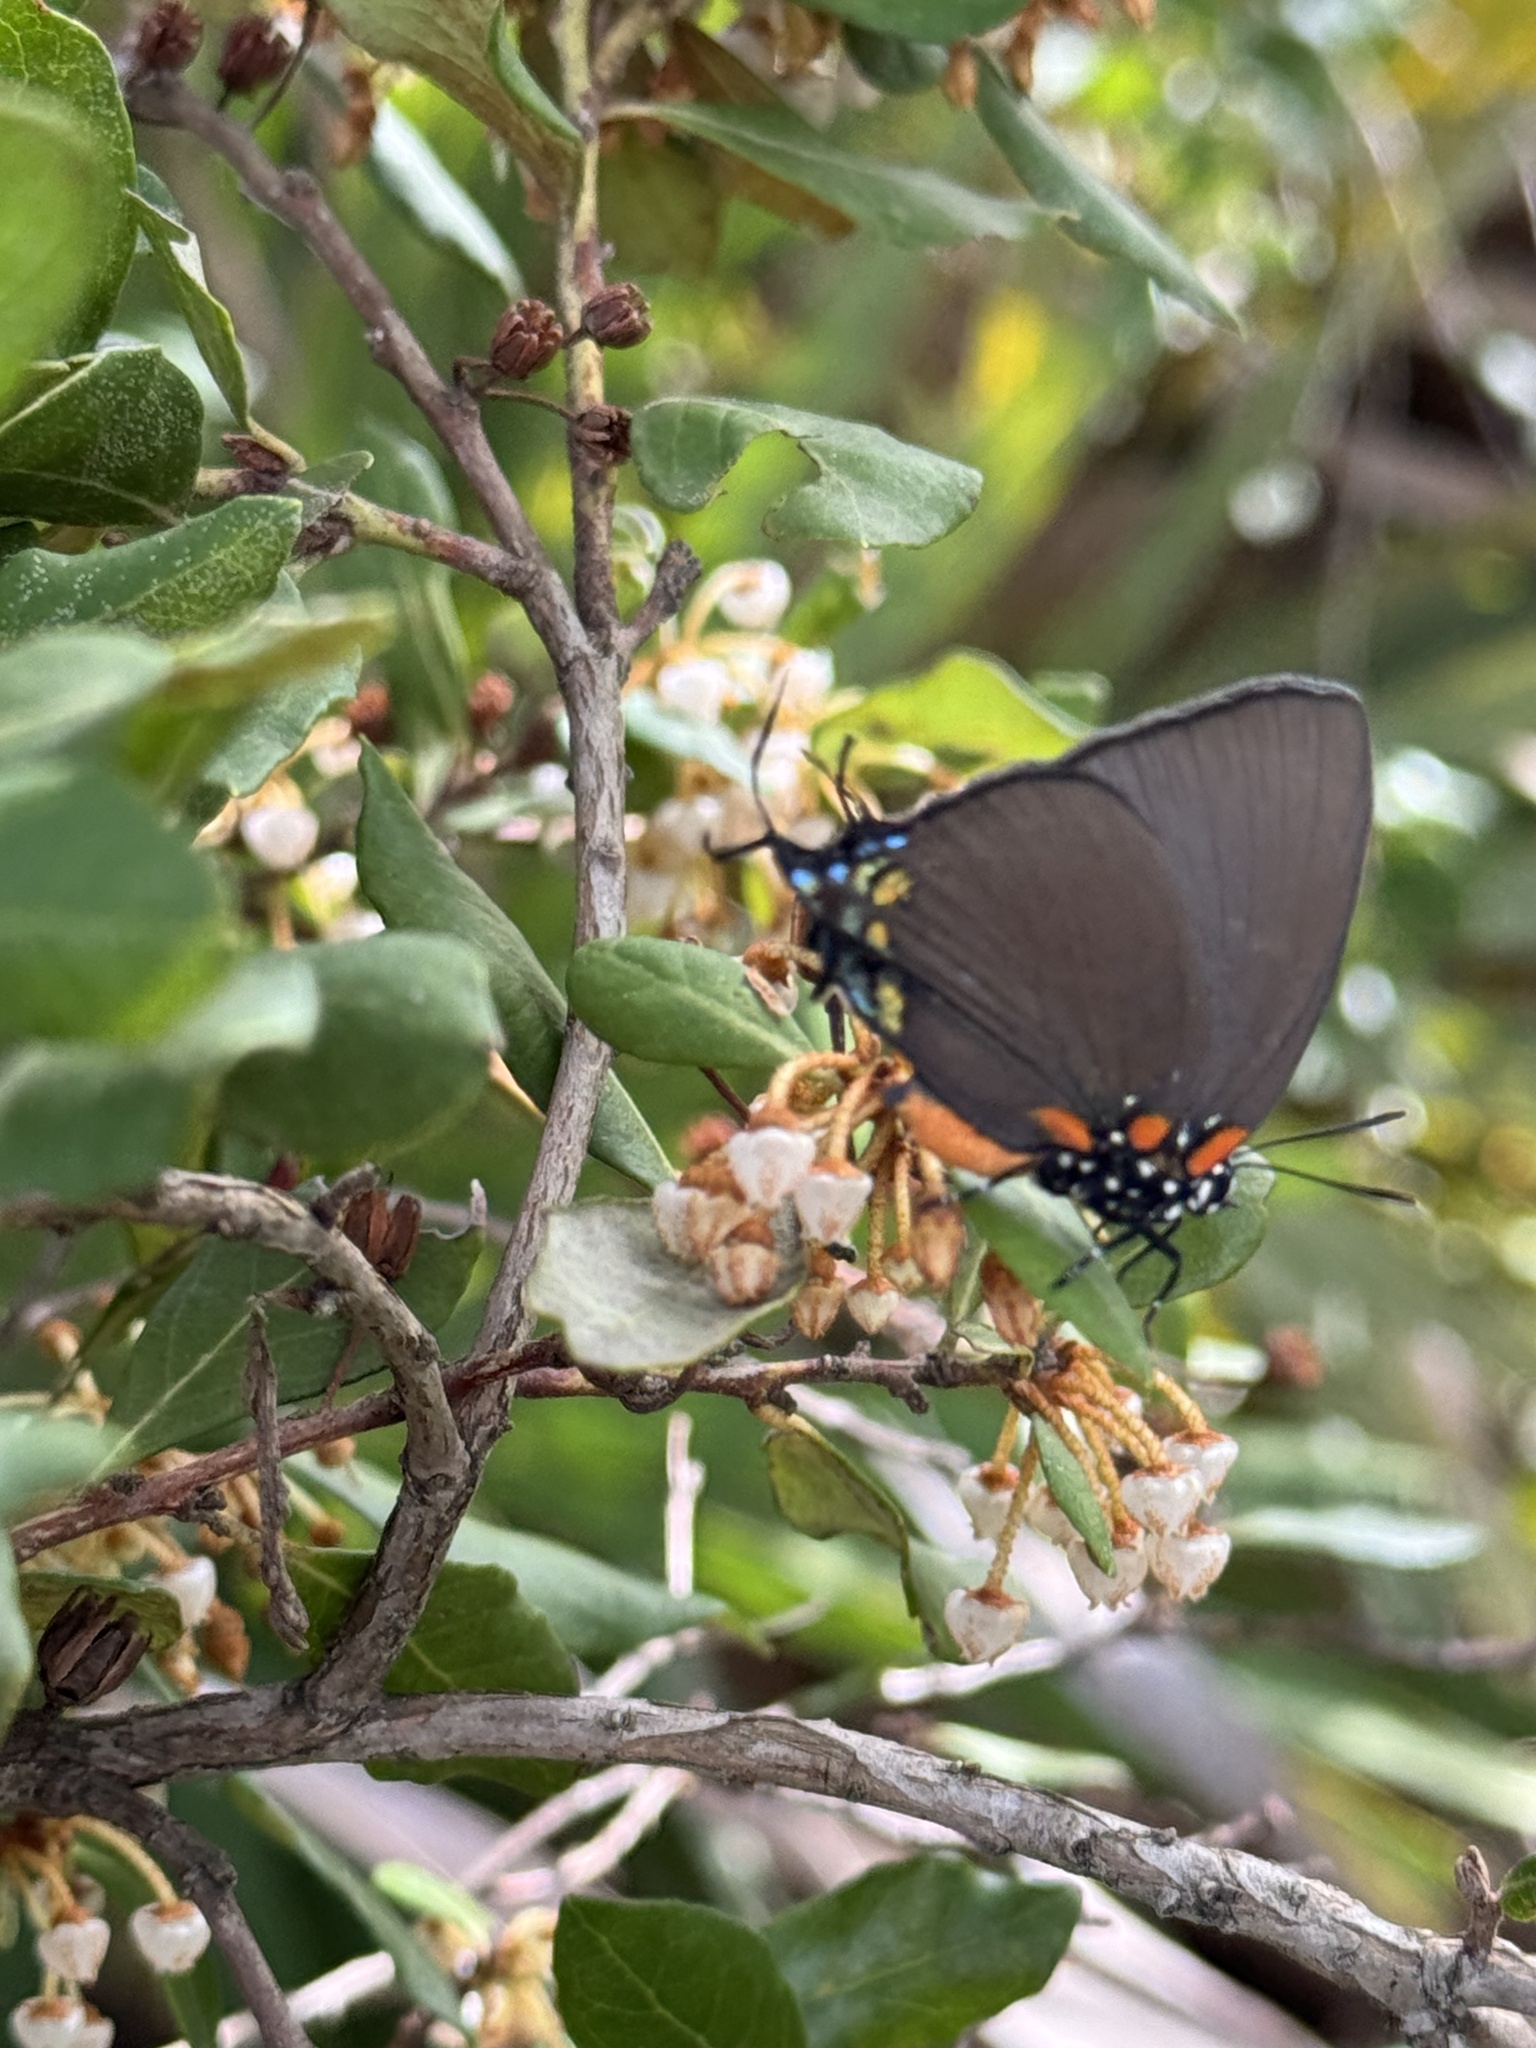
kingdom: Animalia
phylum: Arthropoda
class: Insecta
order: Lepidoptera
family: Lycaenidae
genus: Atlides
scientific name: Atlides halesus
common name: Great purple hairstreak
